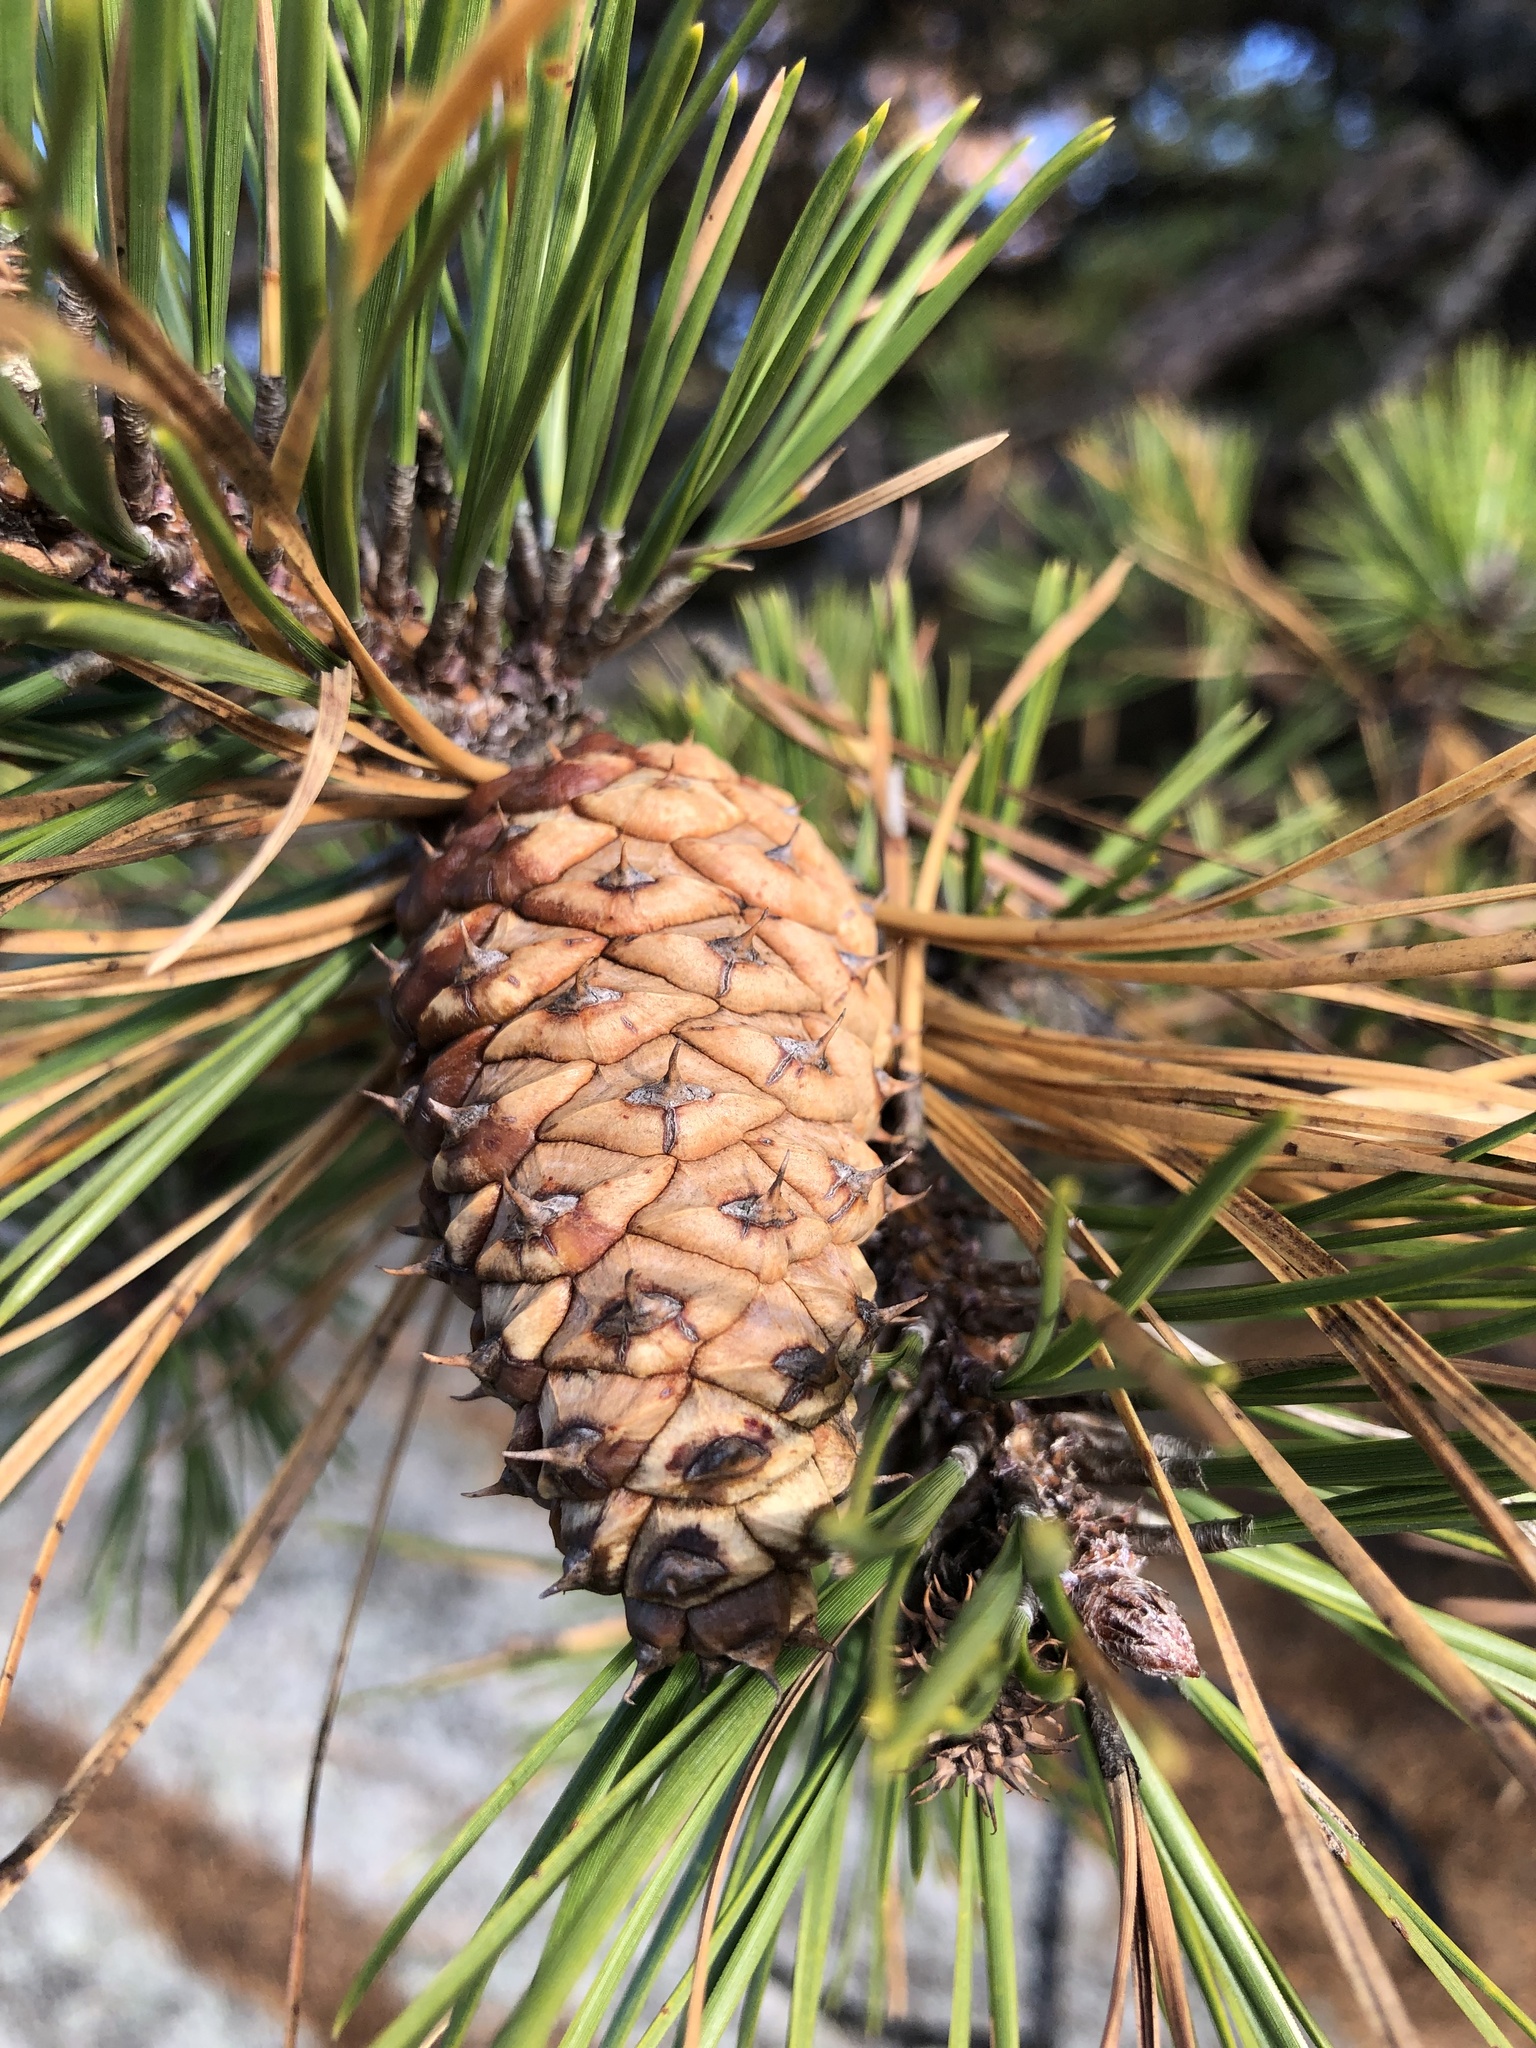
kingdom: Plantae
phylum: Tracheophyta
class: Pinopsida
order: Pinales
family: Pinaceae
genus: Pinus
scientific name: Pinus rigida
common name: Pitch pine
